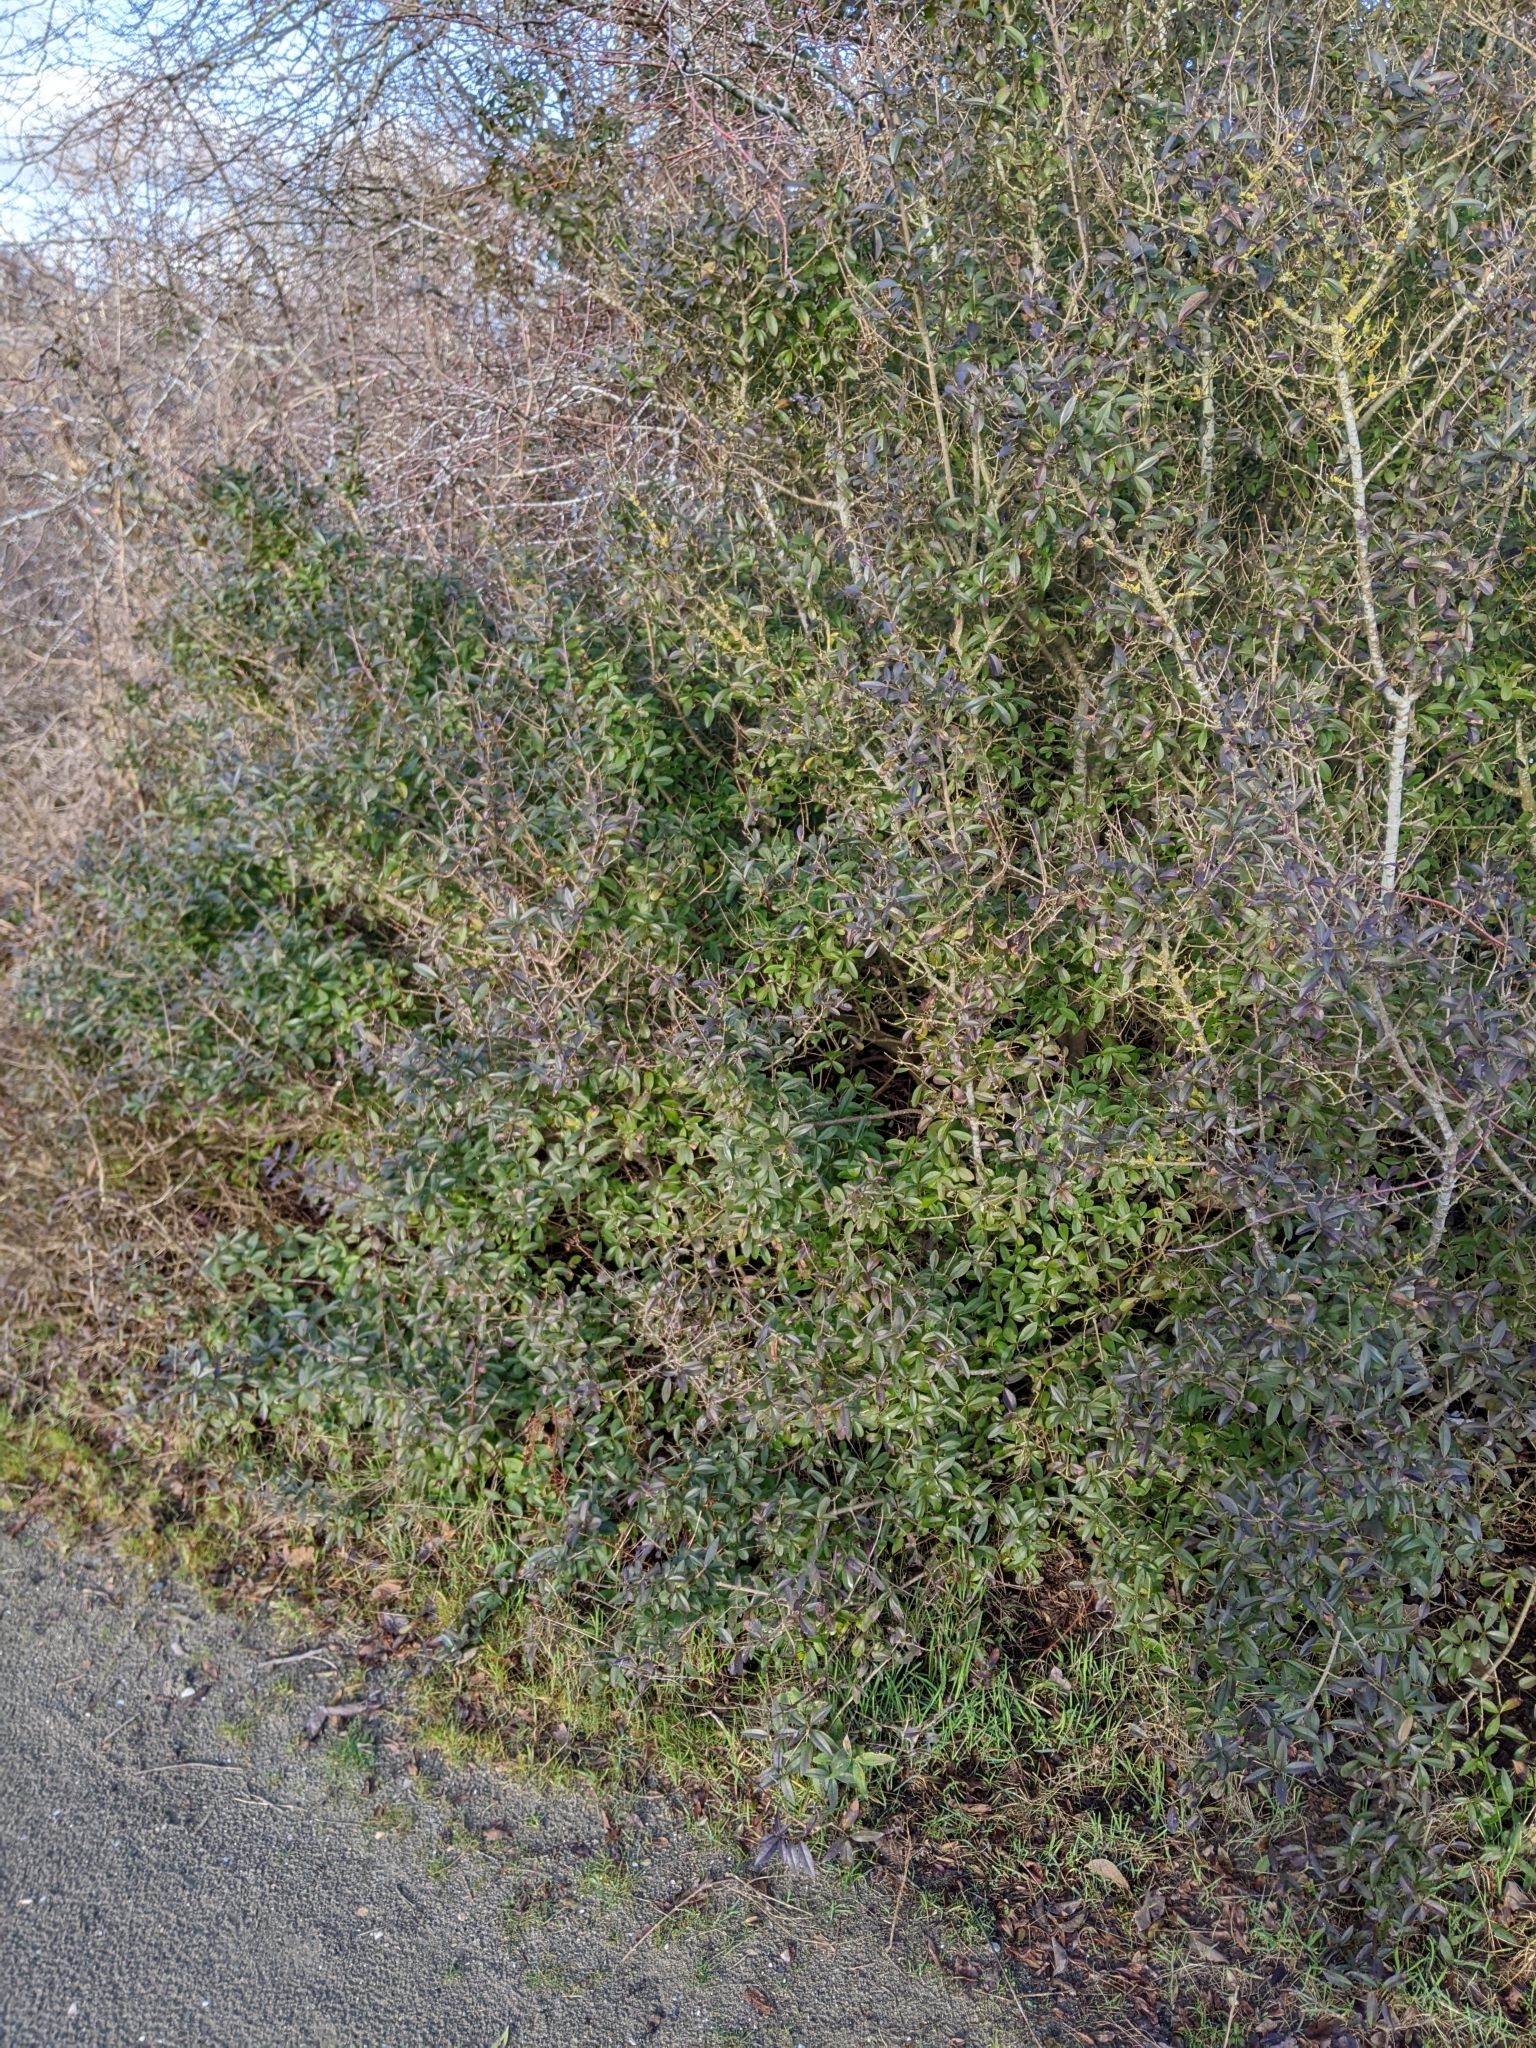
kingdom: Plantae
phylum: Tracheophyta
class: Magnoliopsida
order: Lamiales
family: Oleaceae
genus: Ligustrum
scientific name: Ligustrum vulgare
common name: Wild privet
